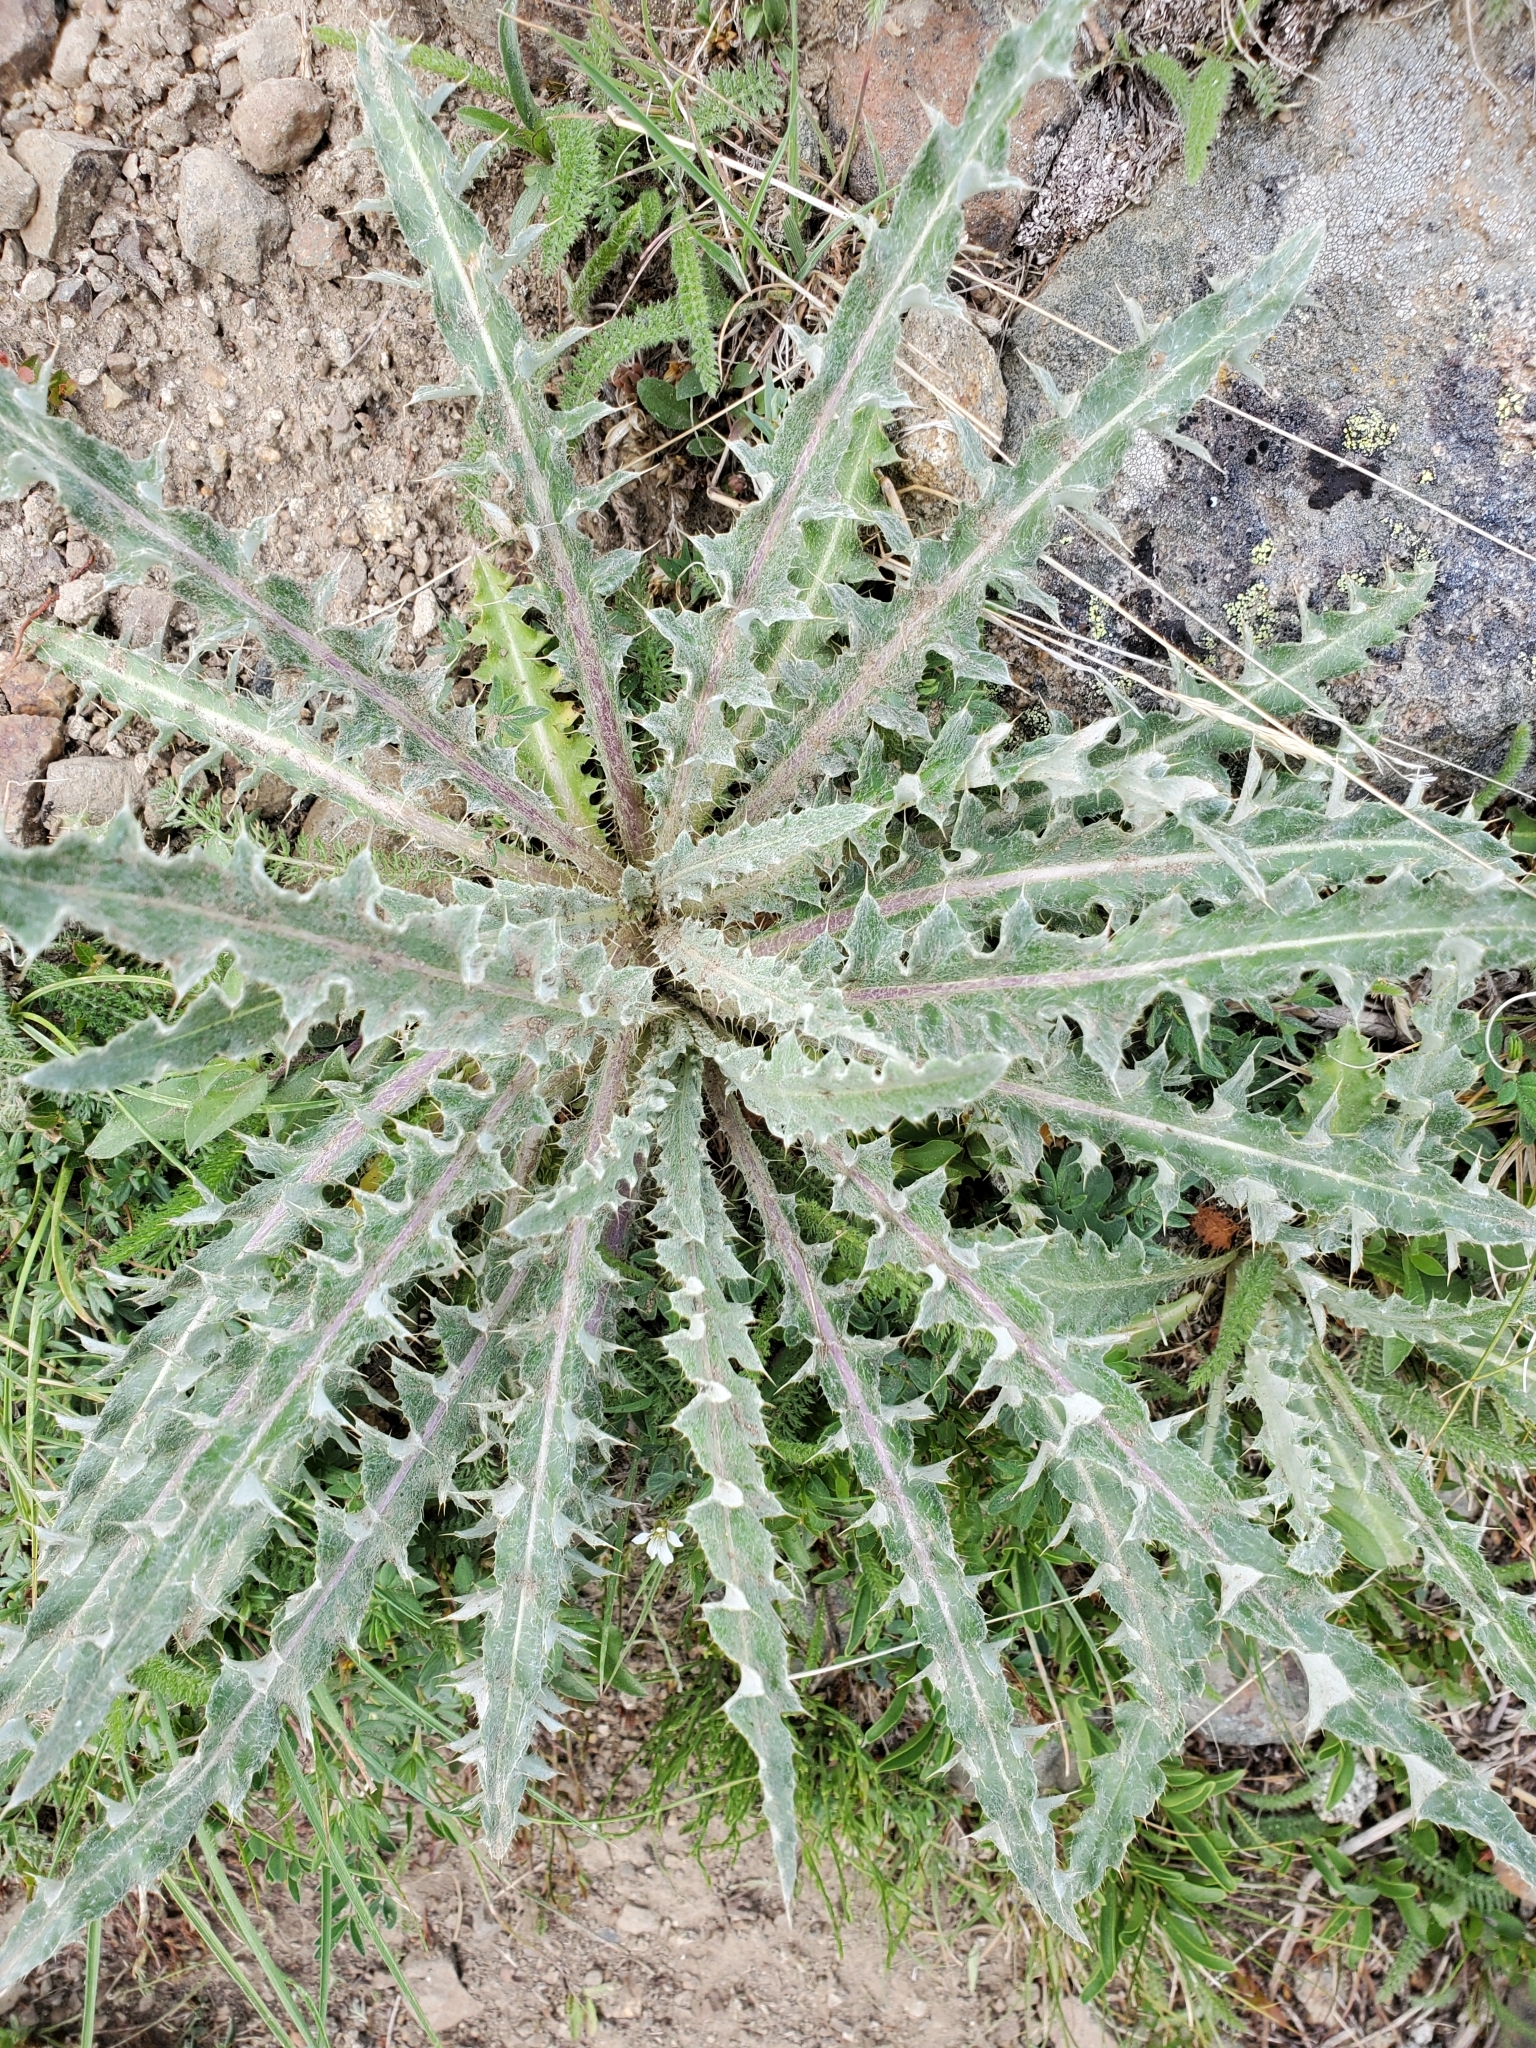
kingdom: Plantae
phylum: Tracheophyta
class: Magnoliopsida
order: Asterales
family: Asteraceae
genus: Cirsium
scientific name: Cirsium hookerianum
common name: Hooker's thistle
